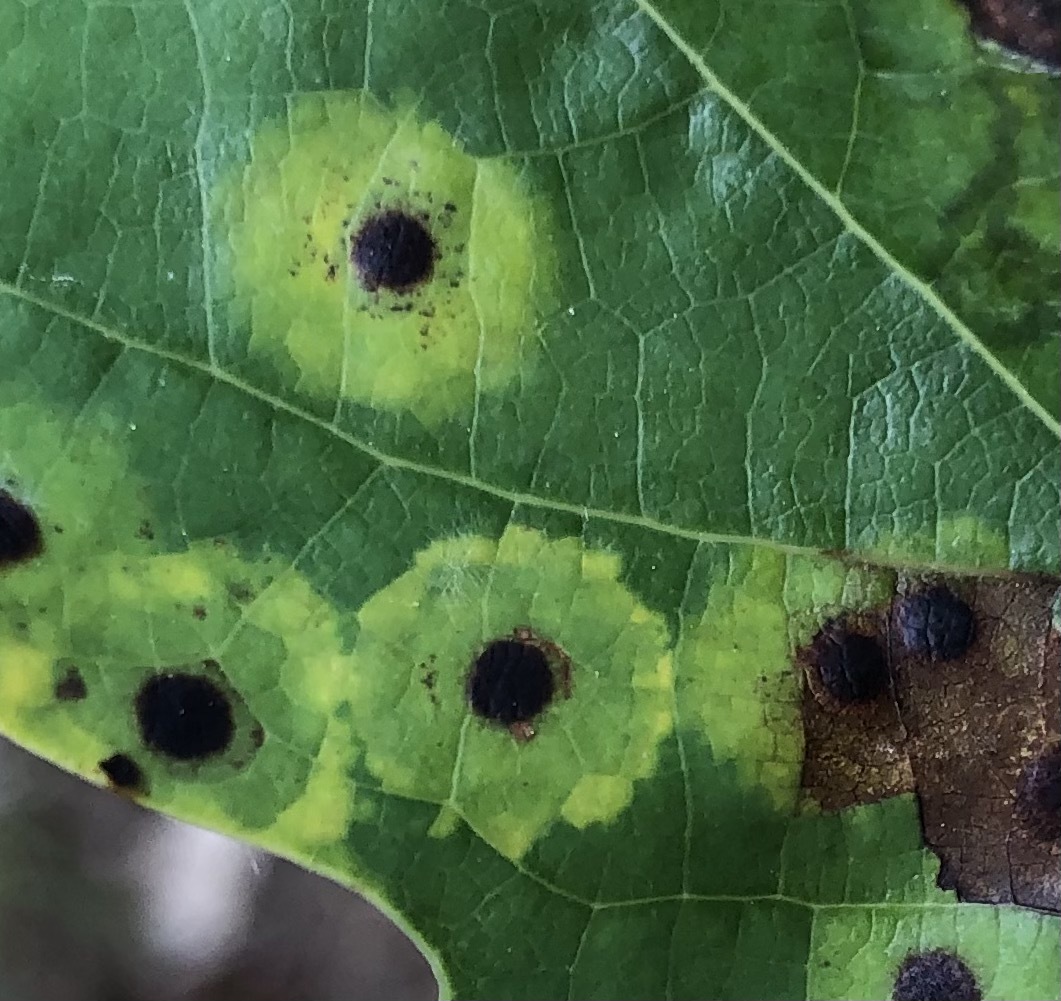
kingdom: Animalia
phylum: Arthropoda
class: Insecta
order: Diptera
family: Cecidomyiidae
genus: Resseliella
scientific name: Resseliella liriodendri
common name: Tulip tree leaf spot gall midge
